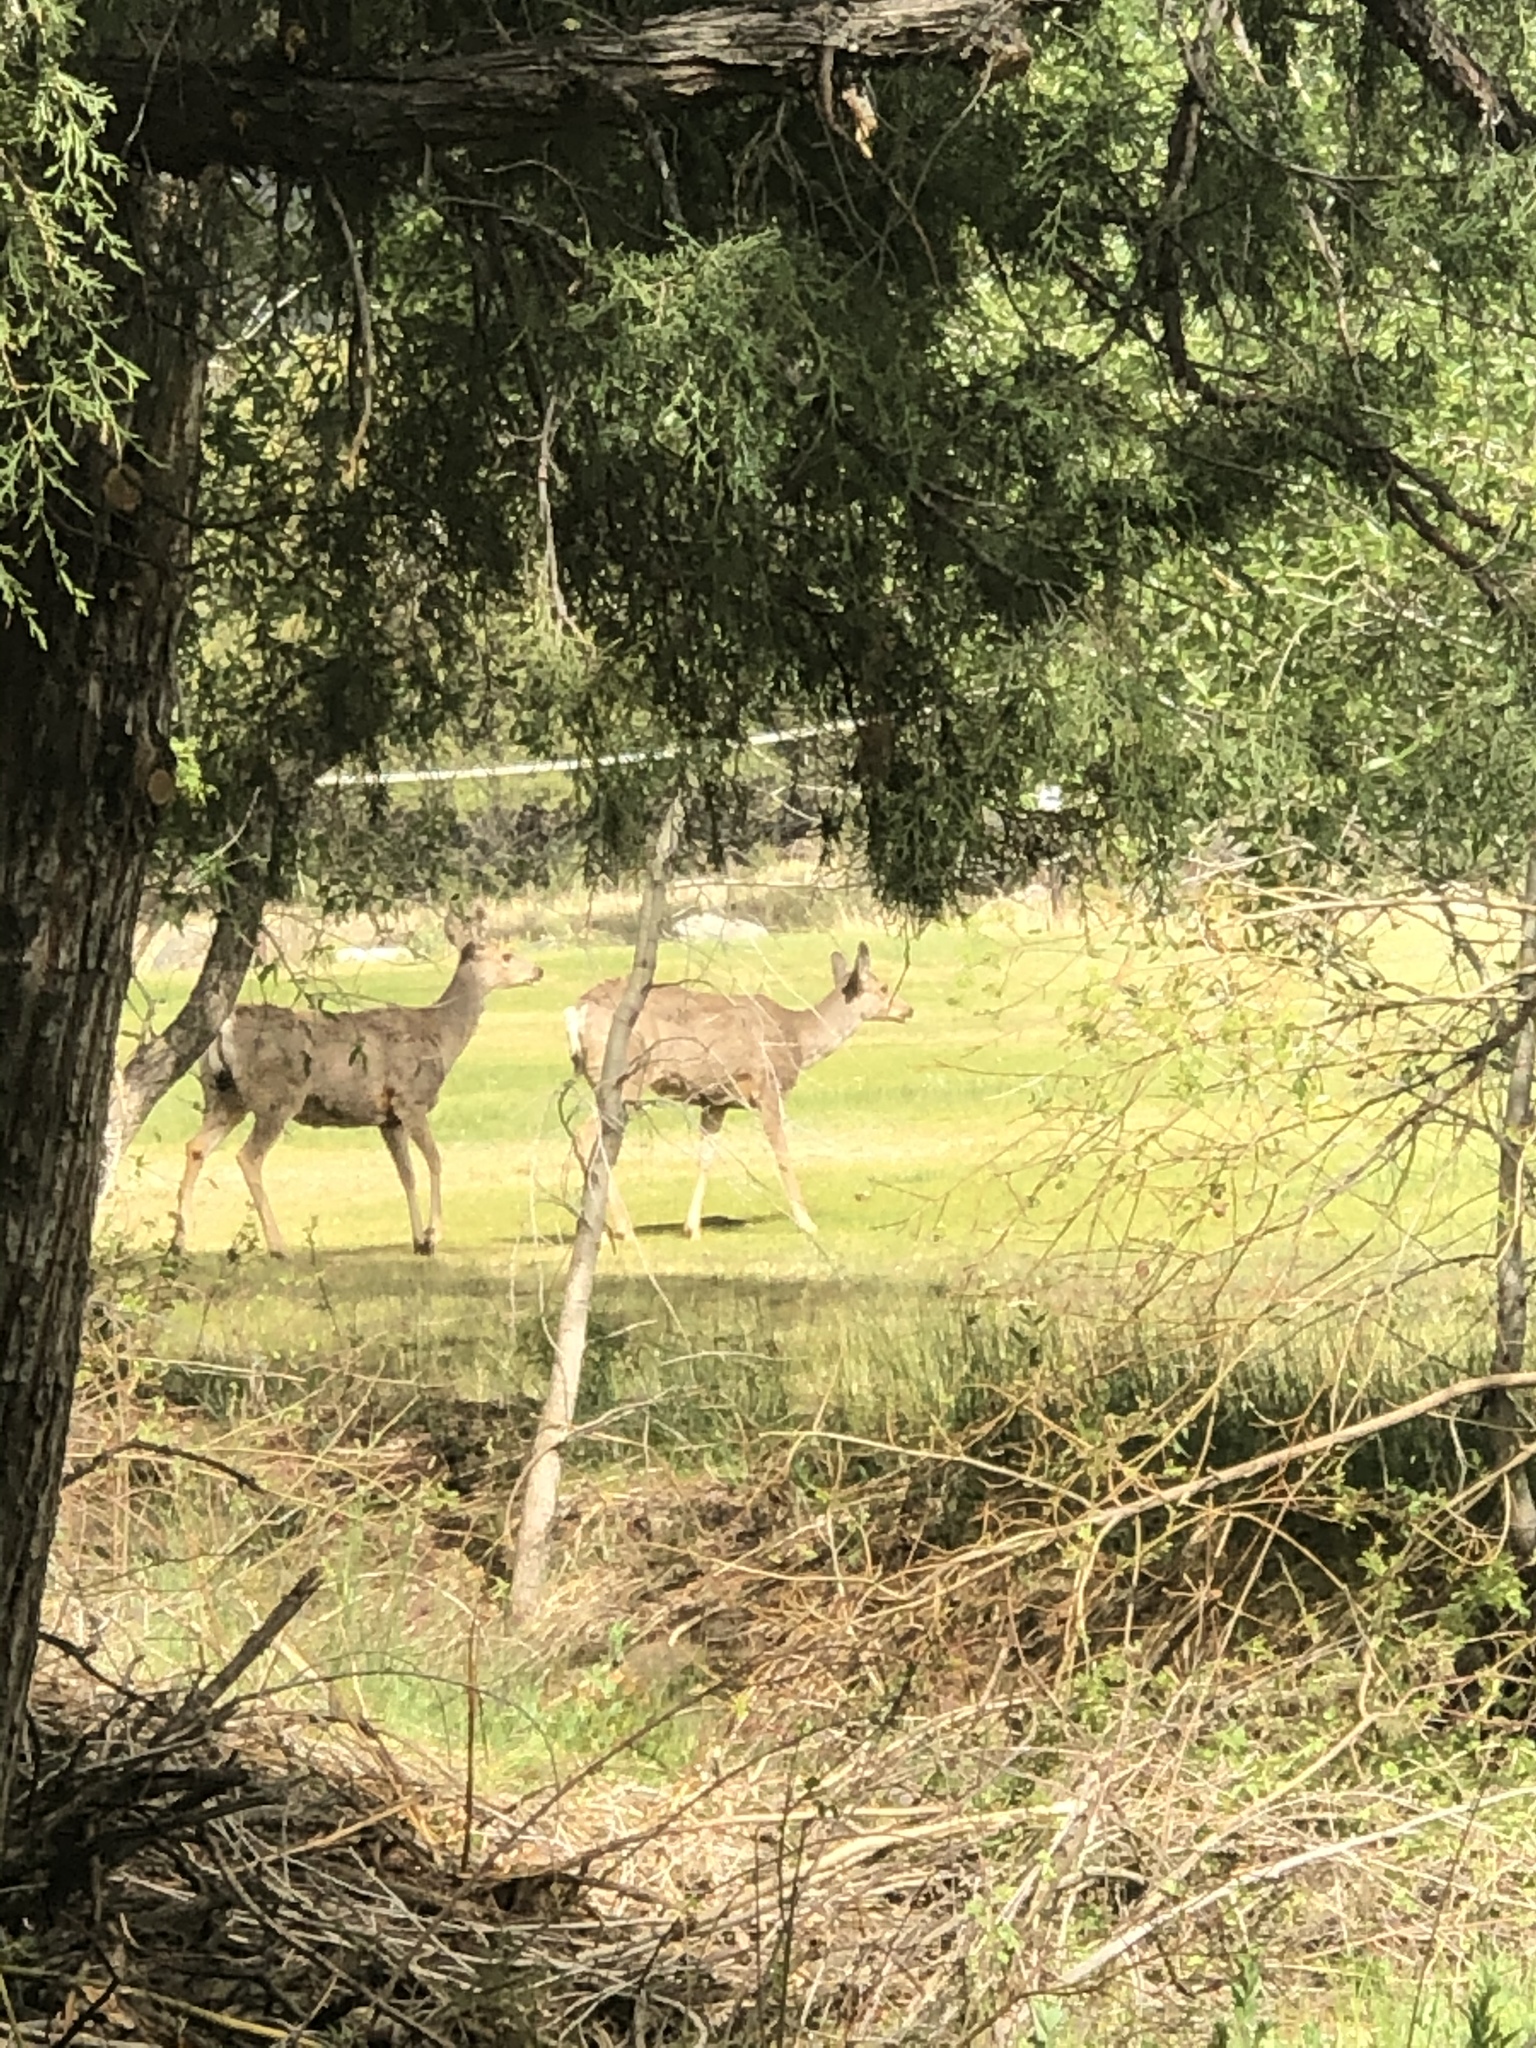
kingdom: Animalia
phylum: Chordata
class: Mammalia
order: Artiodactyla
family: Cervidae
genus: Odocoileus
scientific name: Odocoileus hemionus
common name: Mule deer
